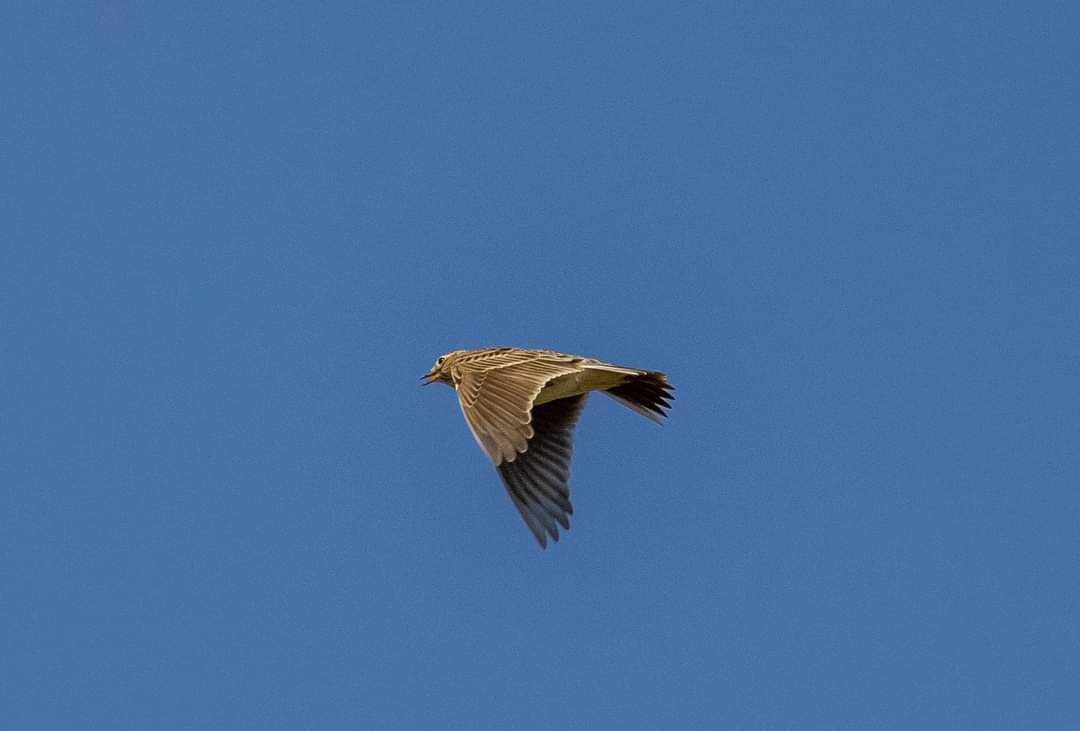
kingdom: Animalia
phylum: Chordata
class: Aves
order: Passeriformes
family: Alaudidae
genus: Alauda
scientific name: Alauda arvensis
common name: Eurasian skylark
